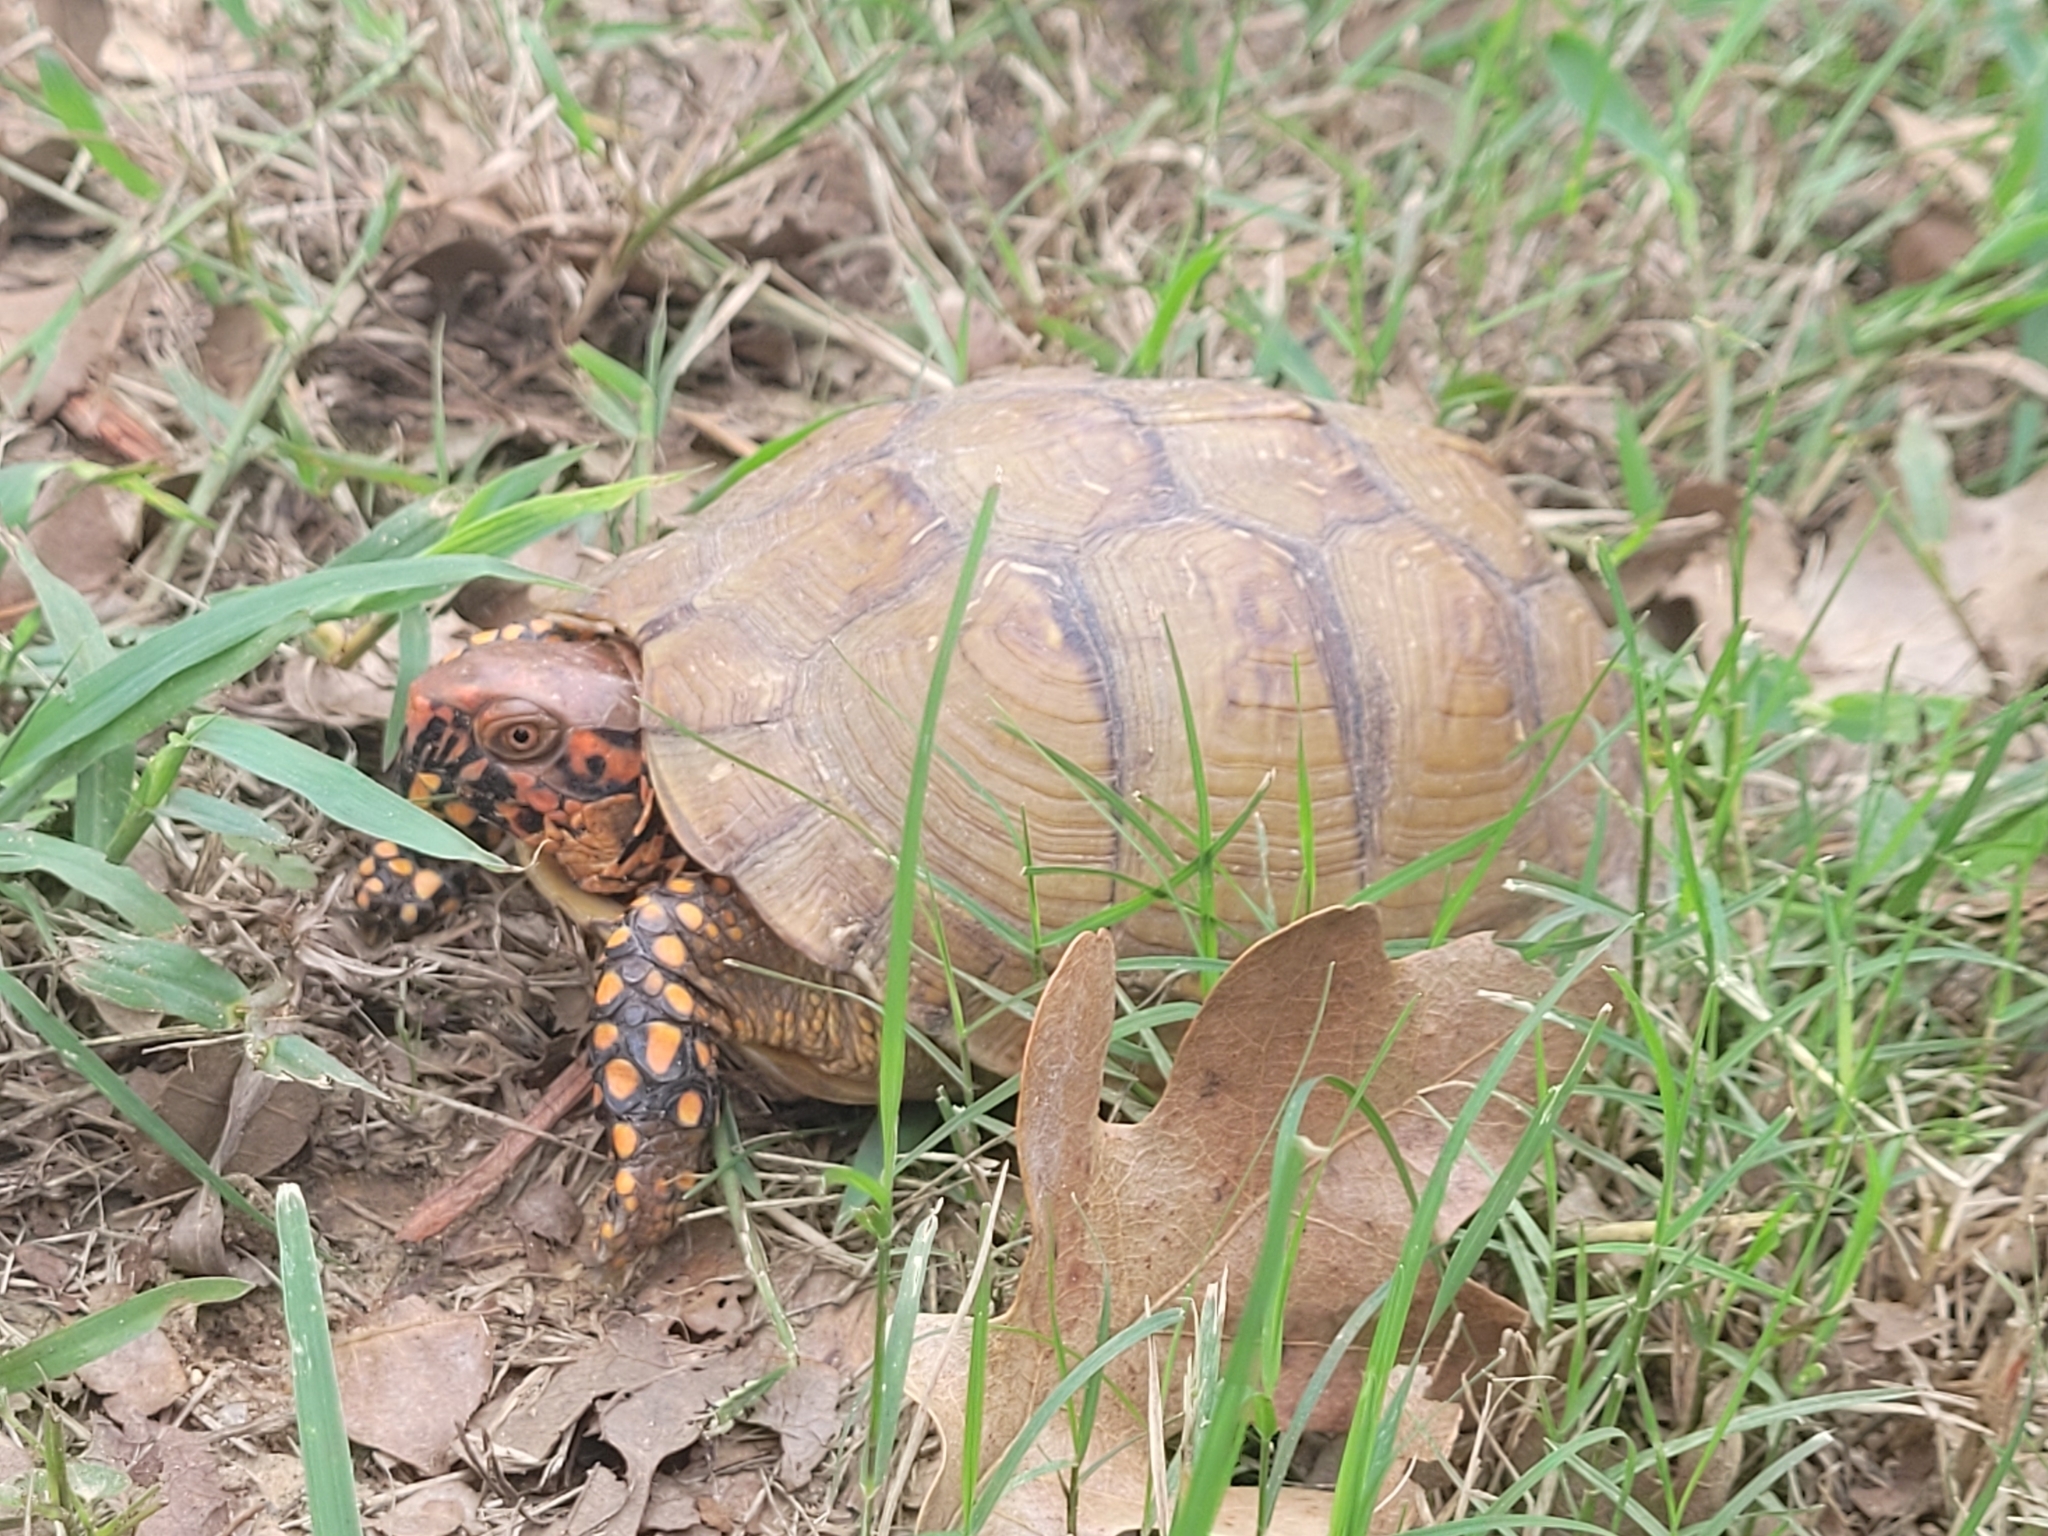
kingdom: Animalia
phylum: Chordata
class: Testudines
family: Emydidae
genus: Terrapene
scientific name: Terrapene carolina
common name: Common box turtle
